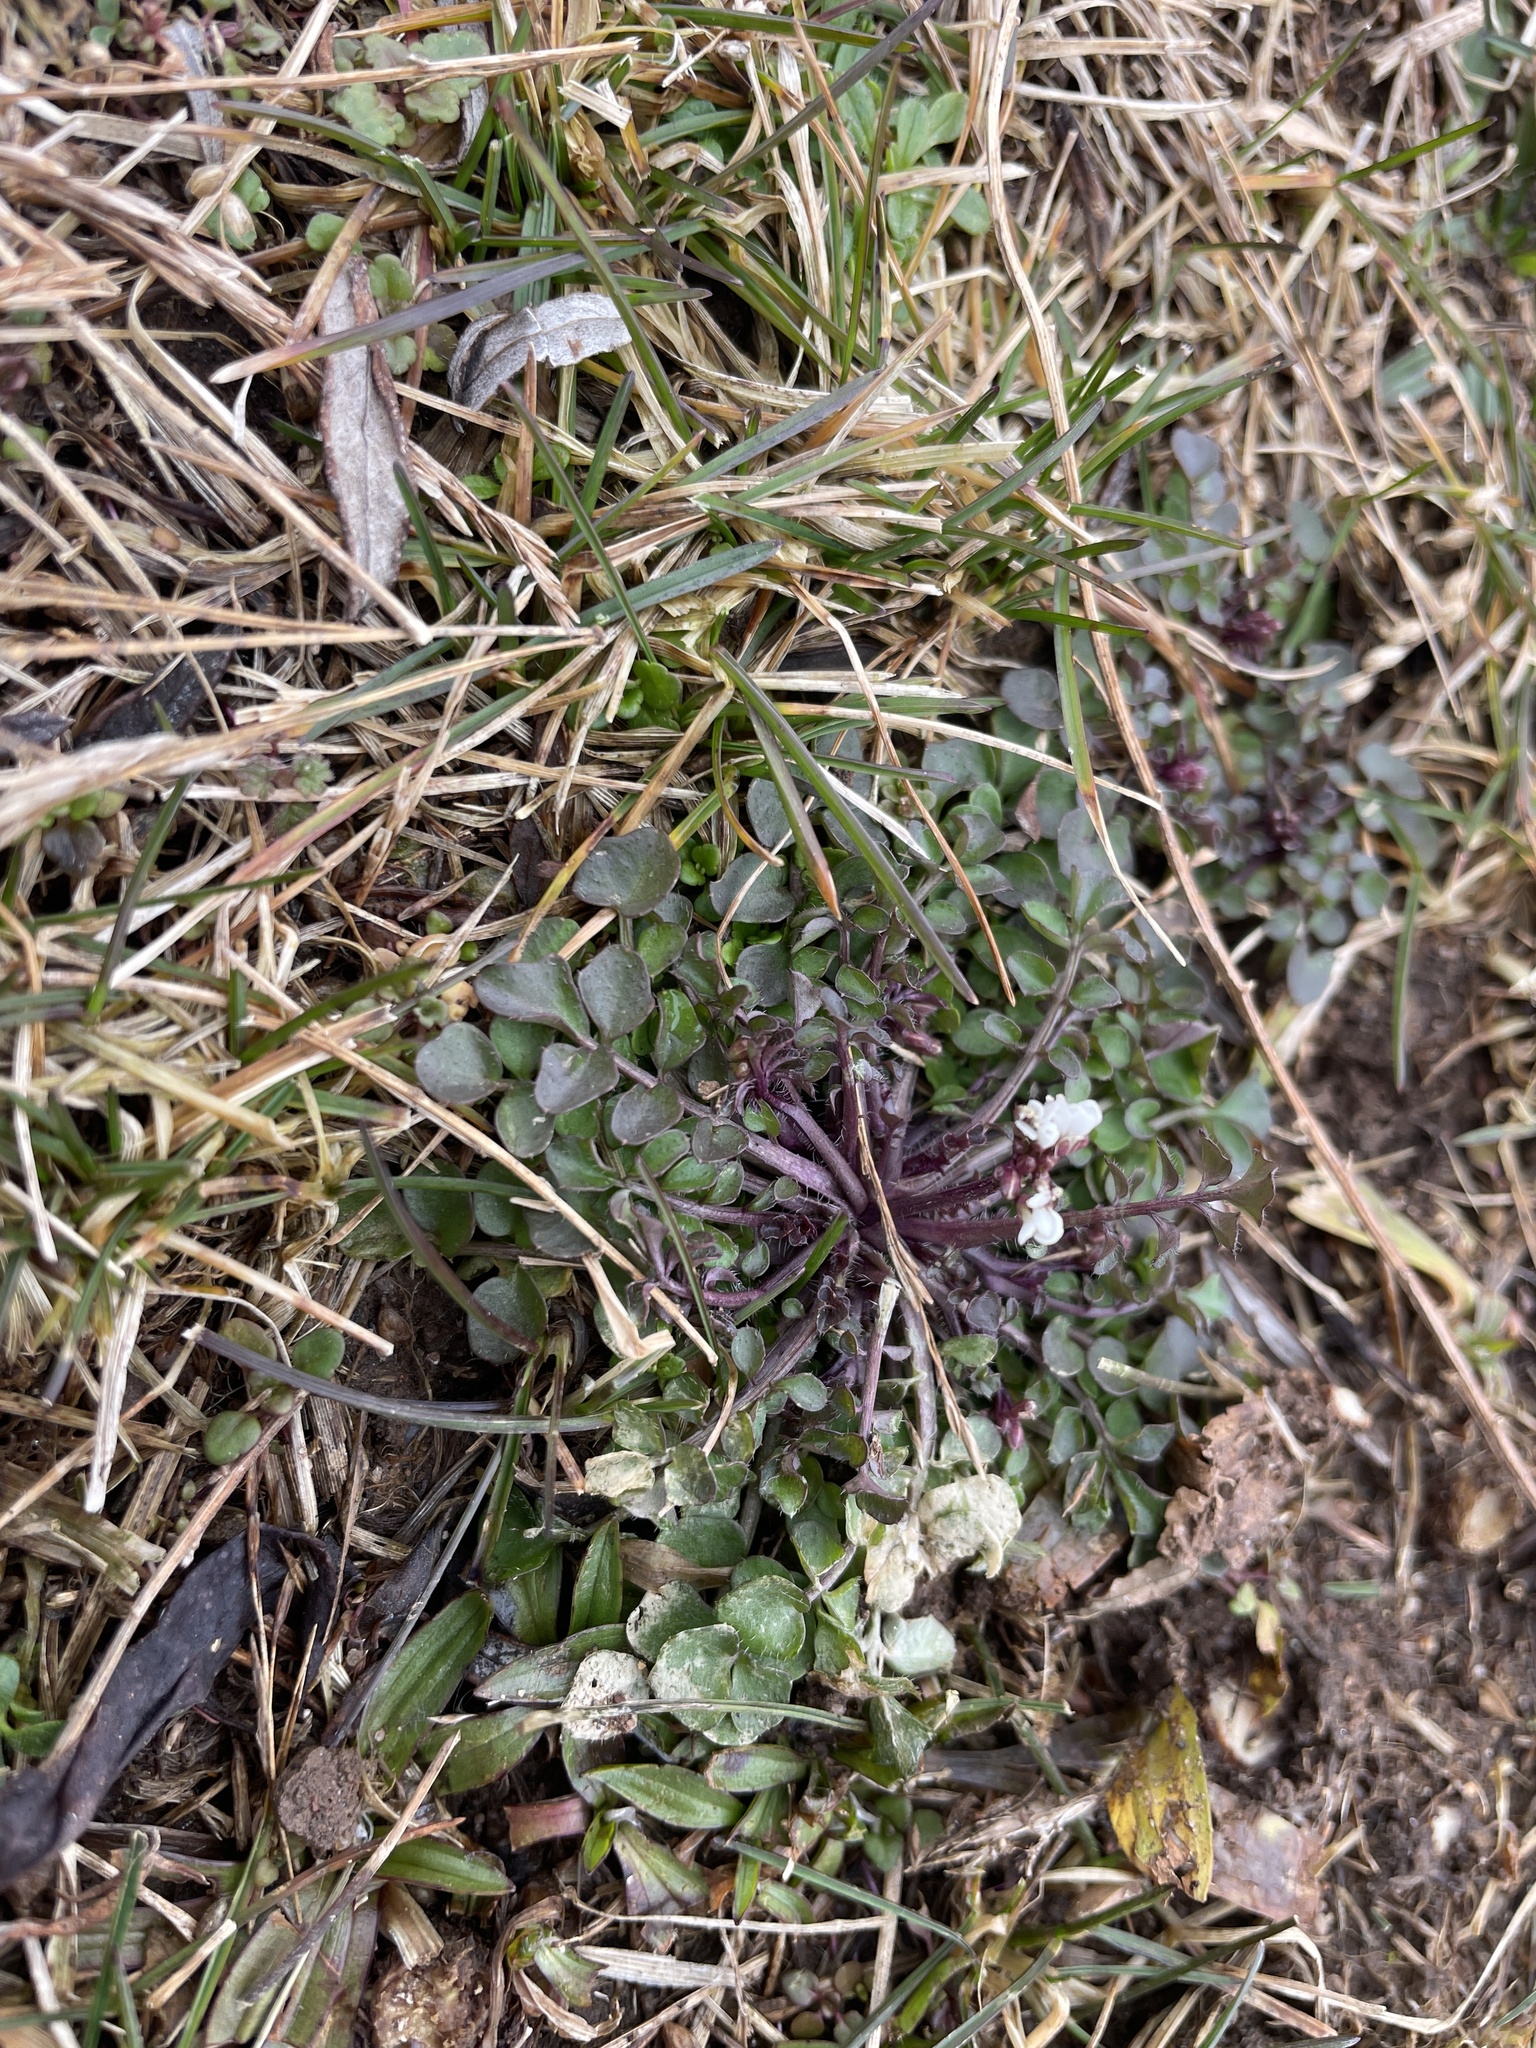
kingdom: Plantae
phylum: Tracheophyta
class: Magnoliopsida
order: Brassicales
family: Brassicaceae
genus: Cardamine
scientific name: Cardamine hirsuta
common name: Hairy bittercress
